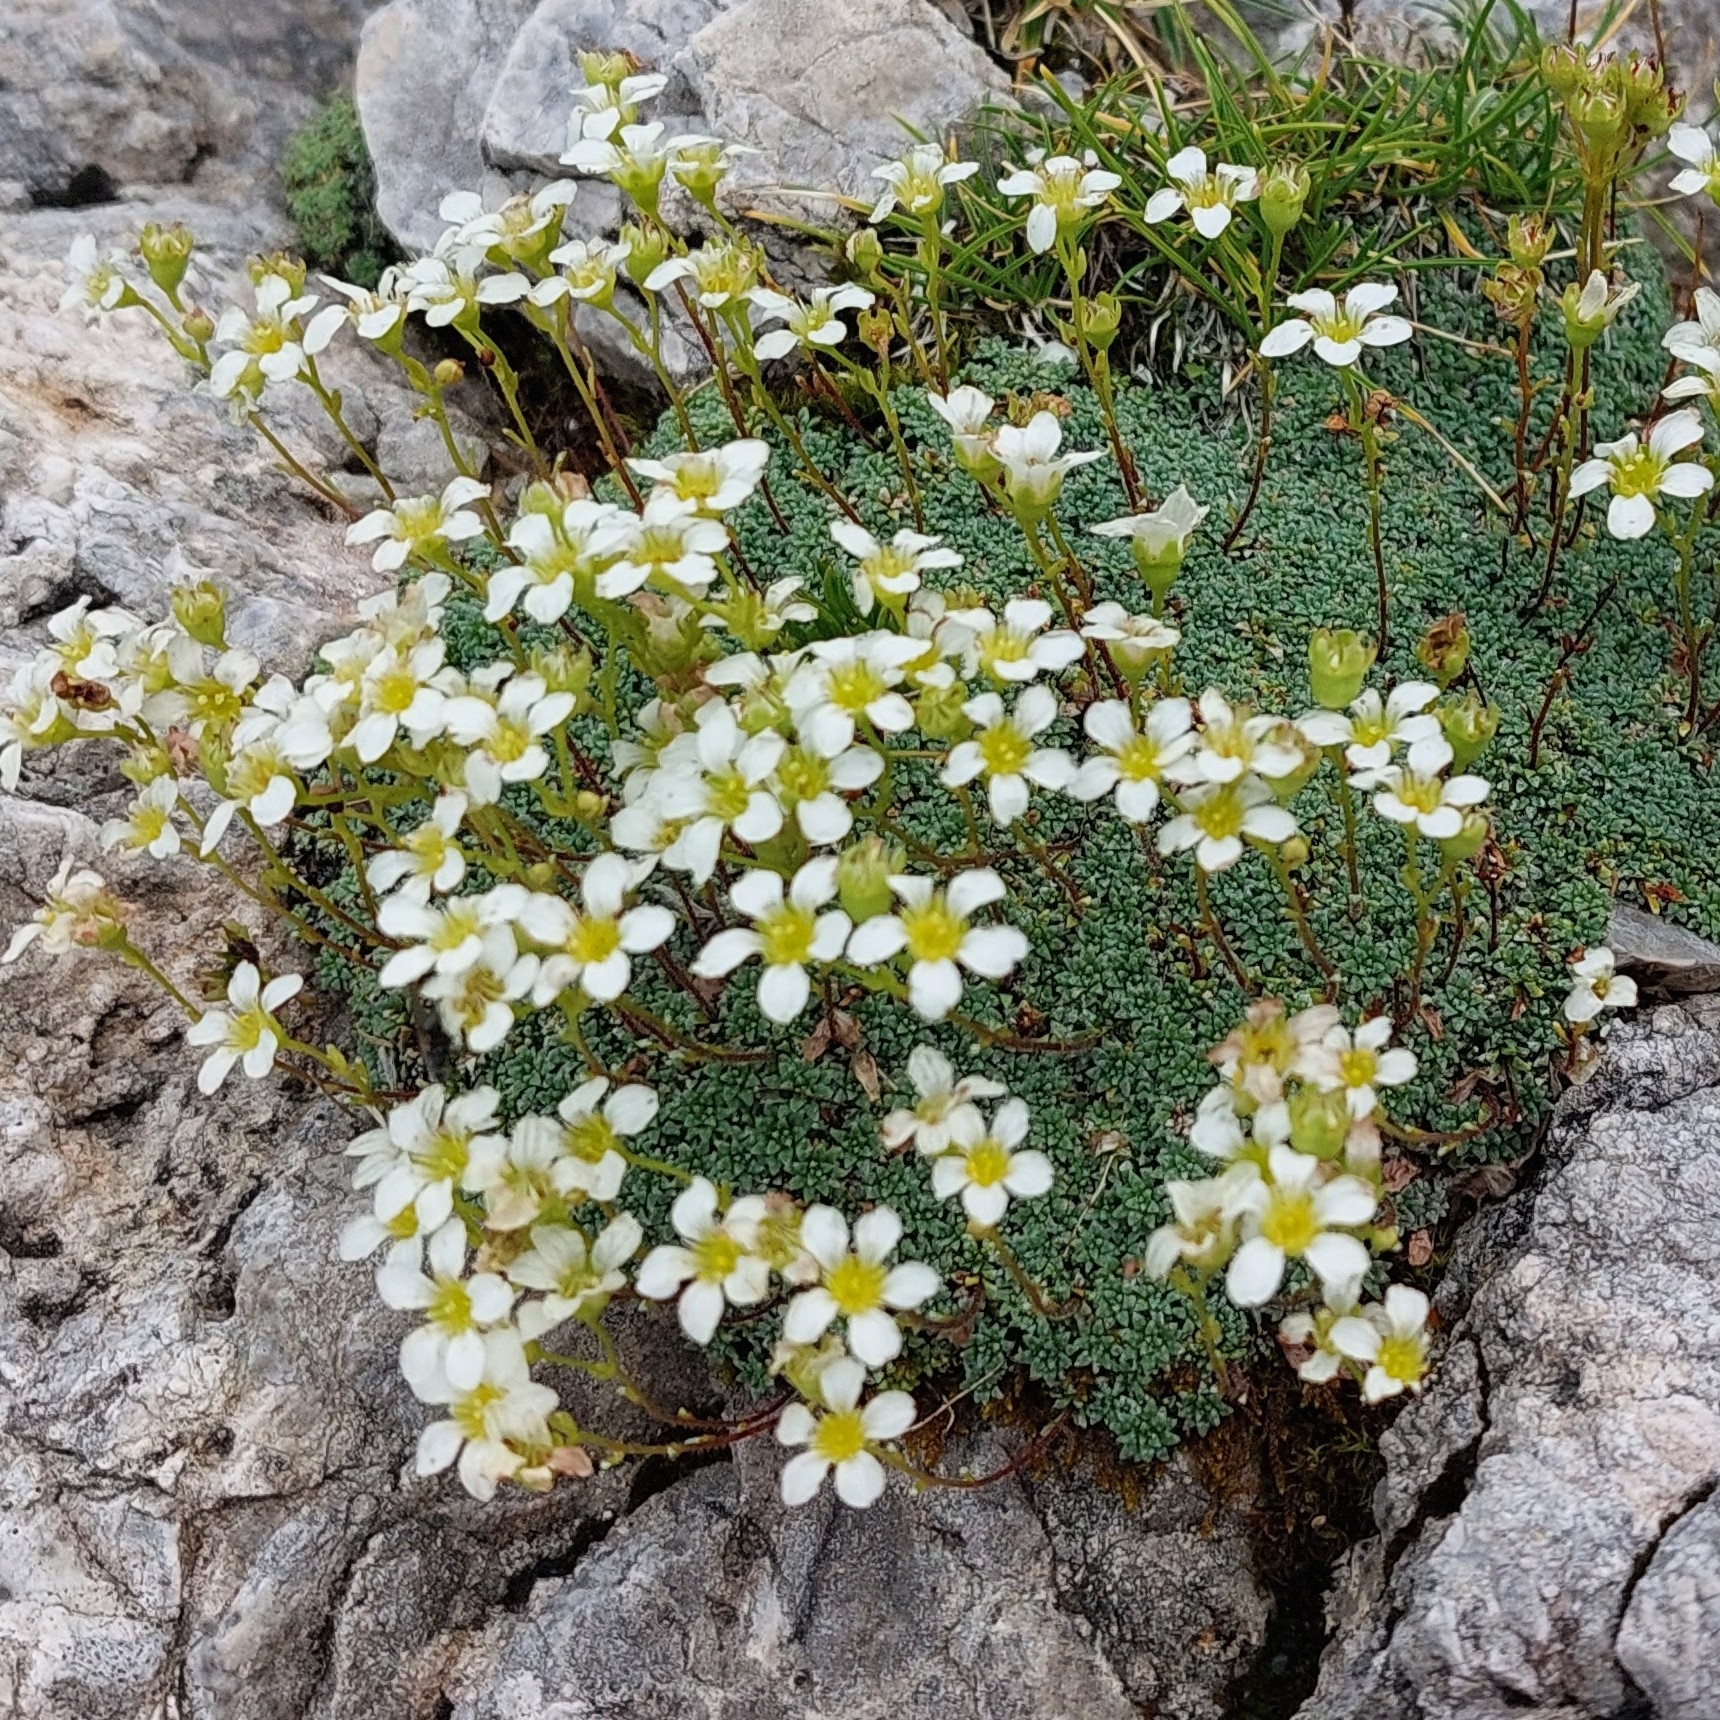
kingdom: Plantae
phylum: Tracheophyta
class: Magnoliopsida
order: Saxifragales
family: Saxifragaceae
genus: Saxifraga
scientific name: Saxifraga caesia
